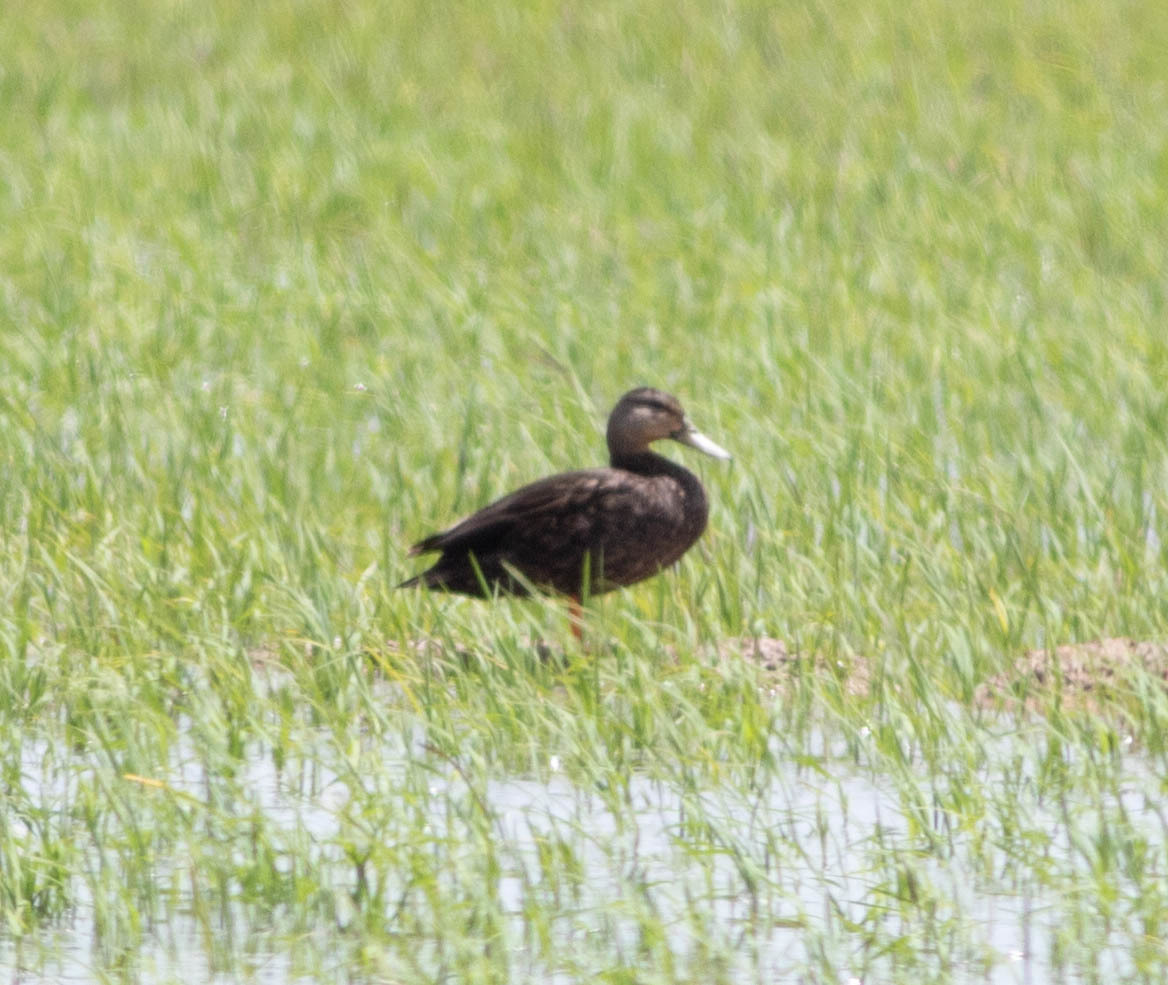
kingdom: Animalia
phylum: Chordata
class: Aves
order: Anseriformes
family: Anatidae
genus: Anas
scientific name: Anas fulvigula
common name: Mottled duck
